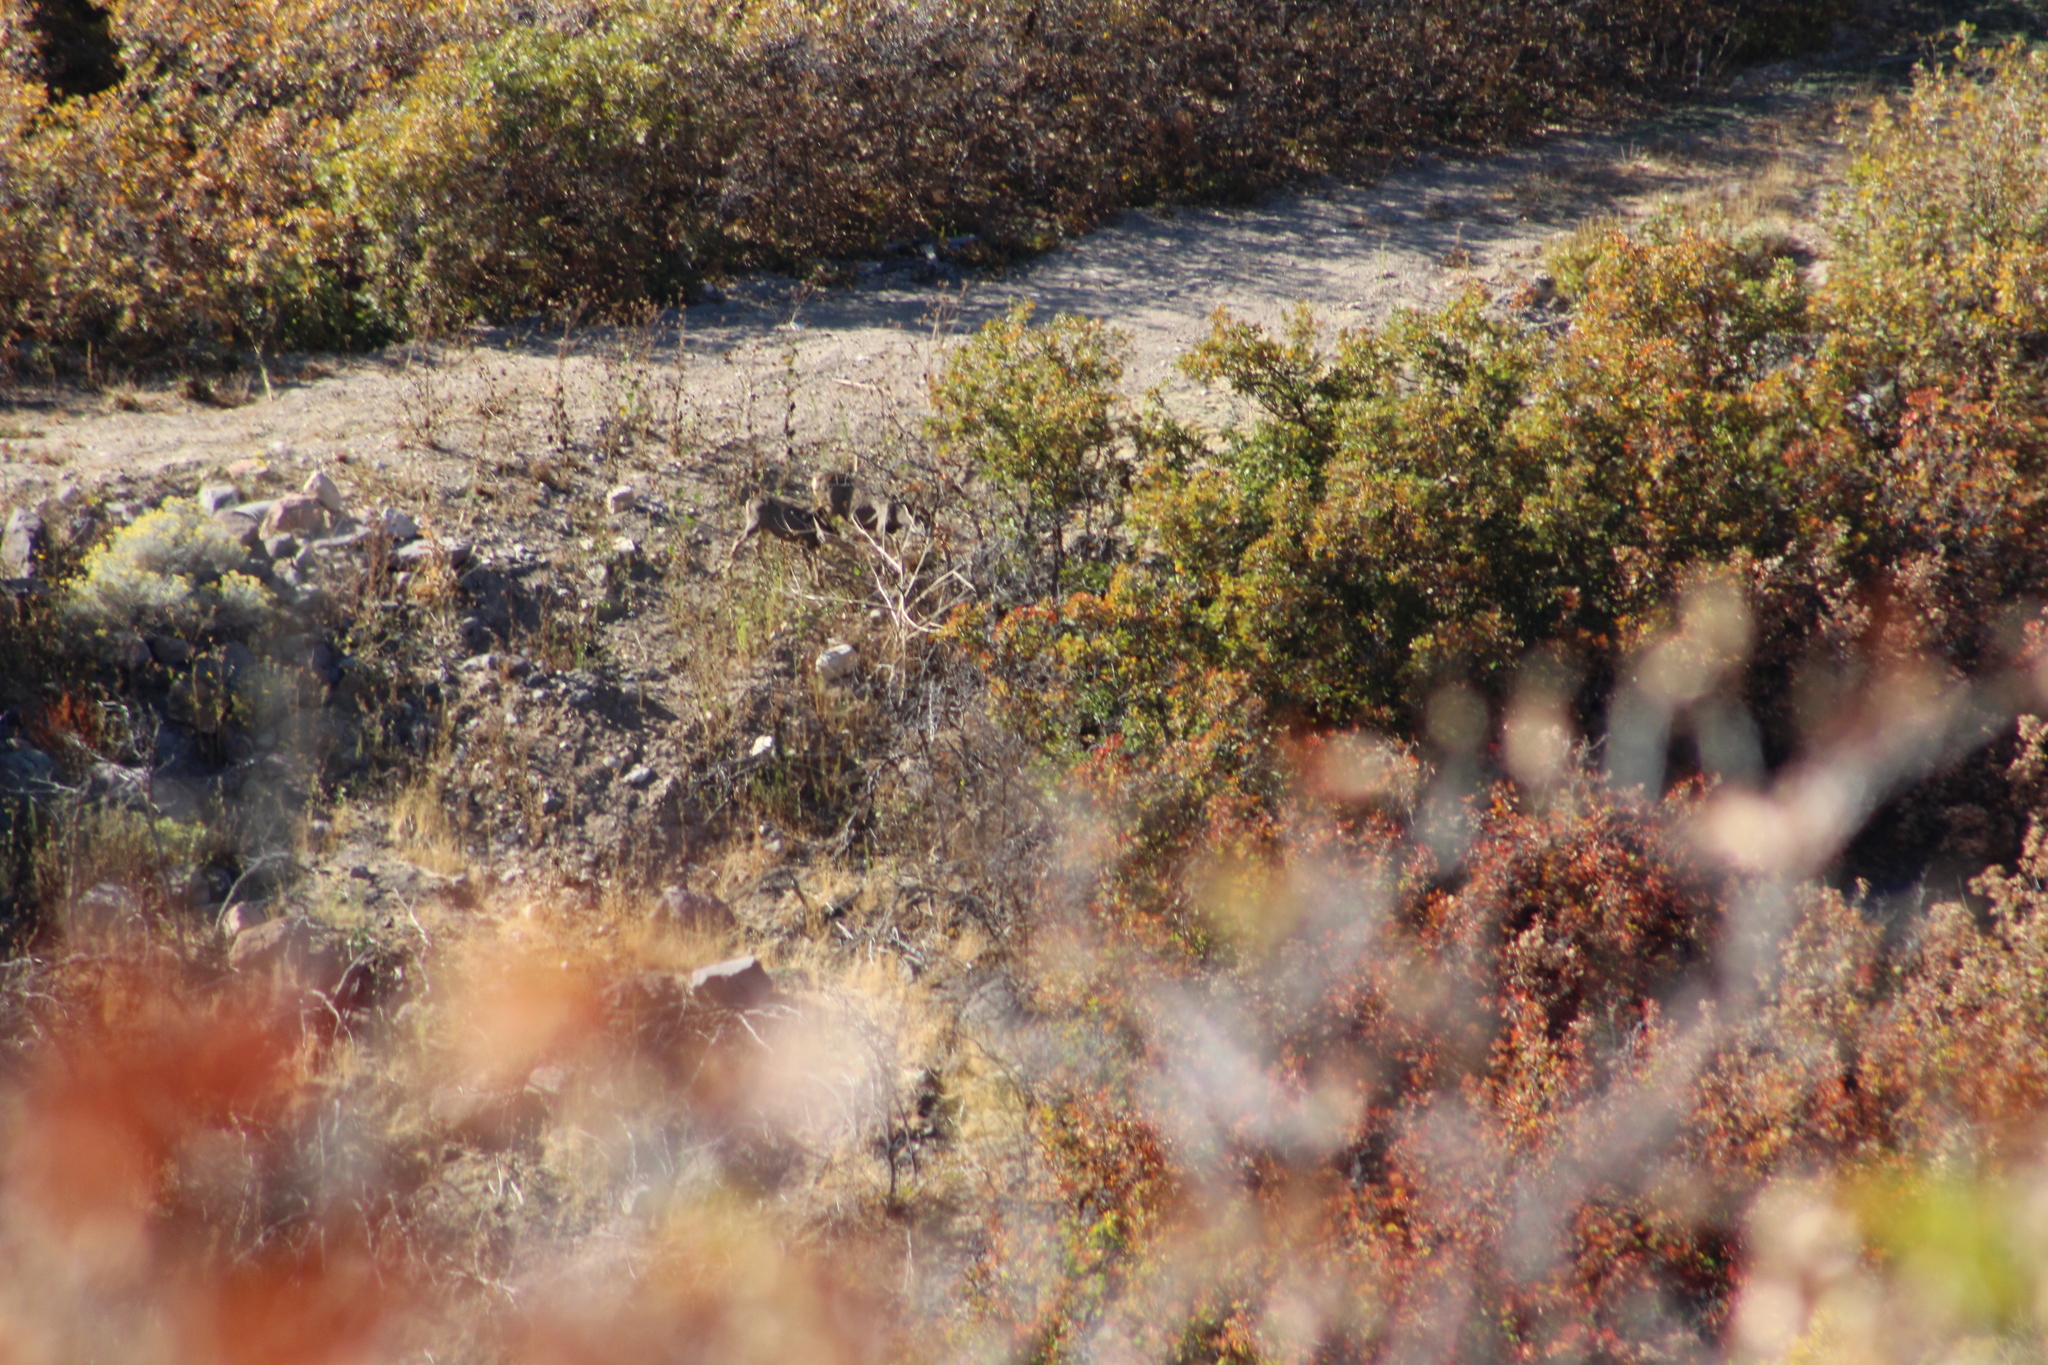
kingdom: Animalia
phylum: Chordata
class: Mammalia
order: Artiodactyla
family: Cervidae
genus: Odocoileus
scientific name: Odocoileus hemionus
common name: Mule deer
